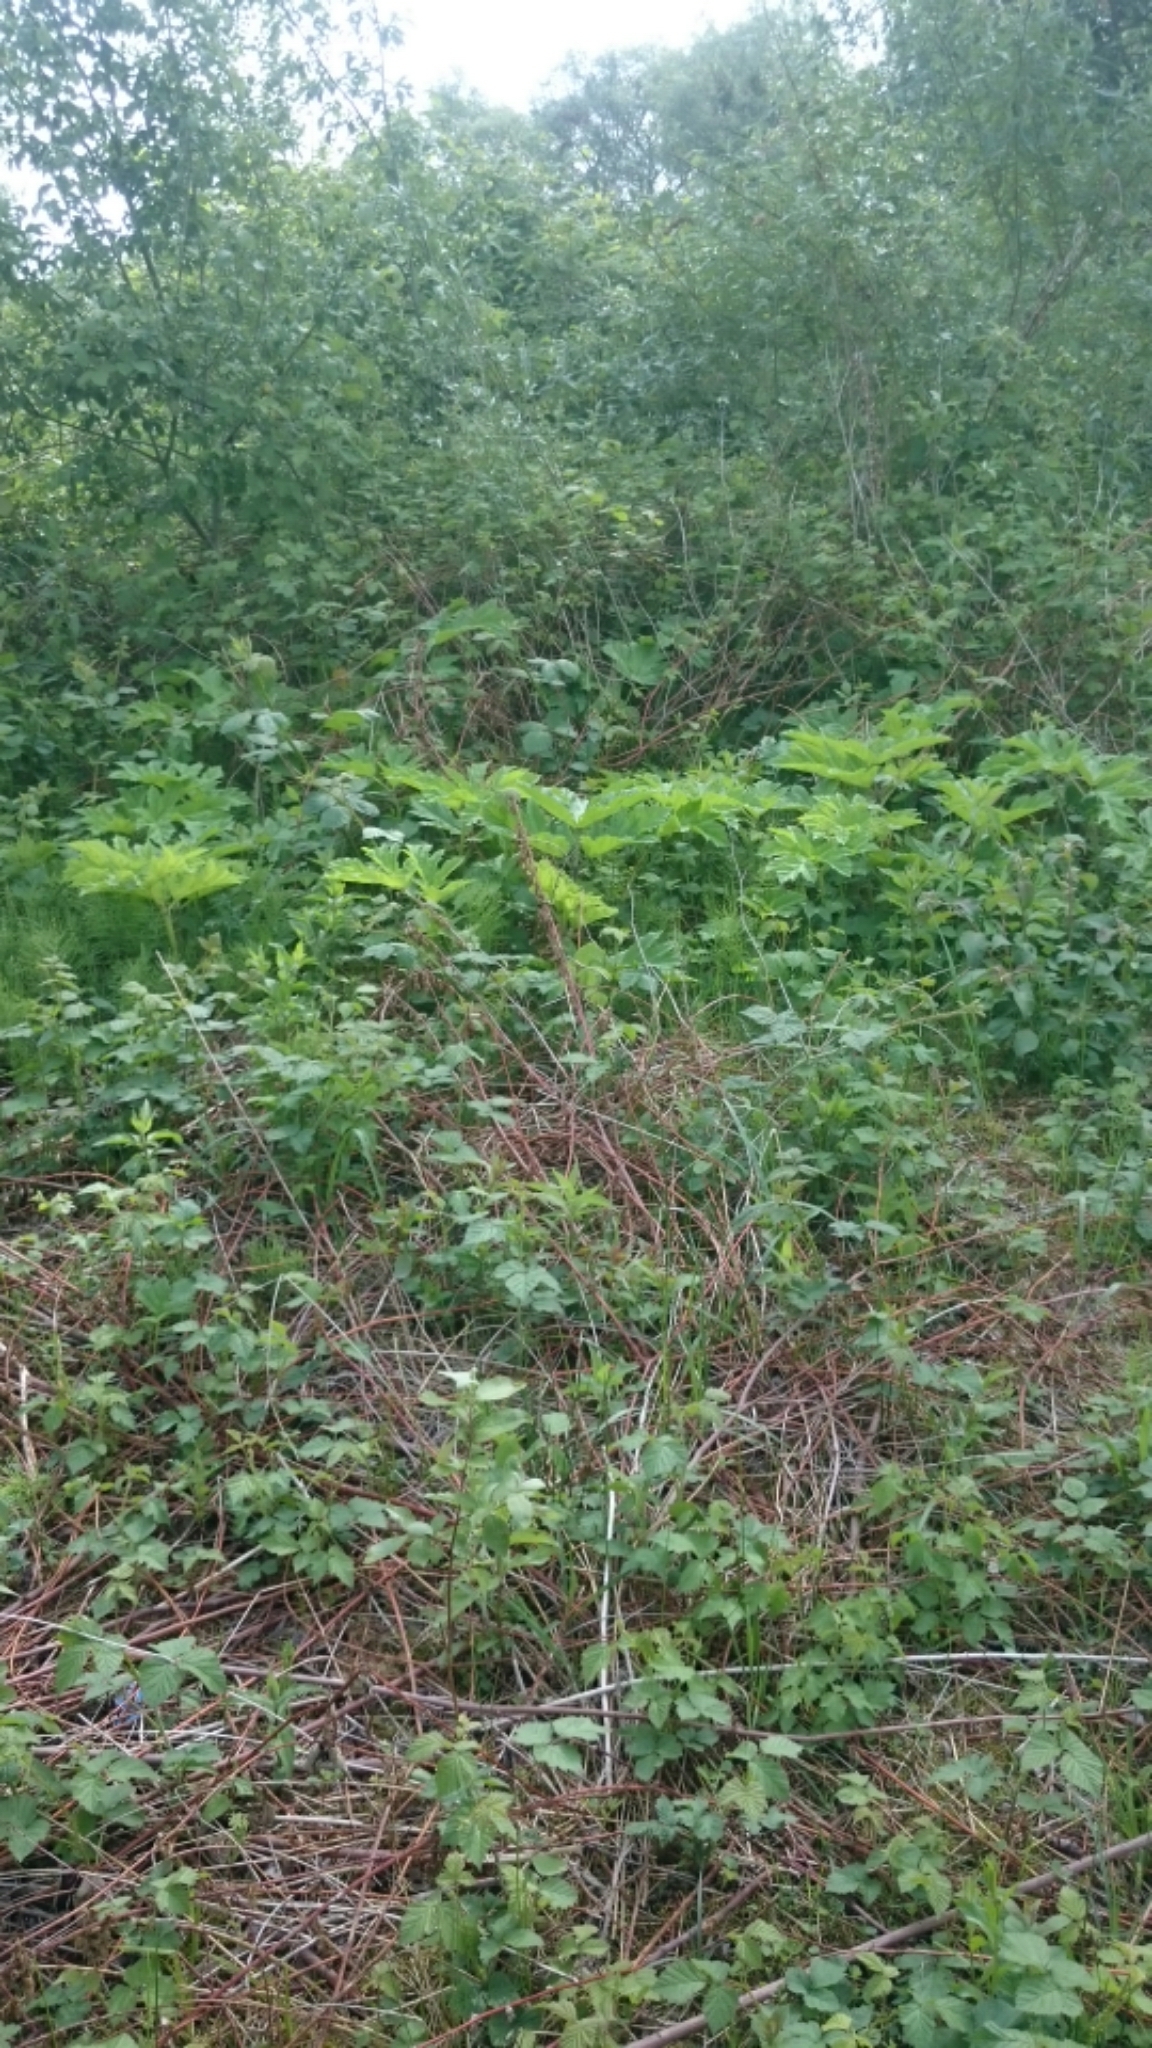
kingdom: Plantae
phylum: Tracheophyta
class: Magnoliopsida
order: Apiales
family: Apiaceae
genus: Heracleum
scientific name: Heracleum mantegazzianum
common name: Giant hogweed
